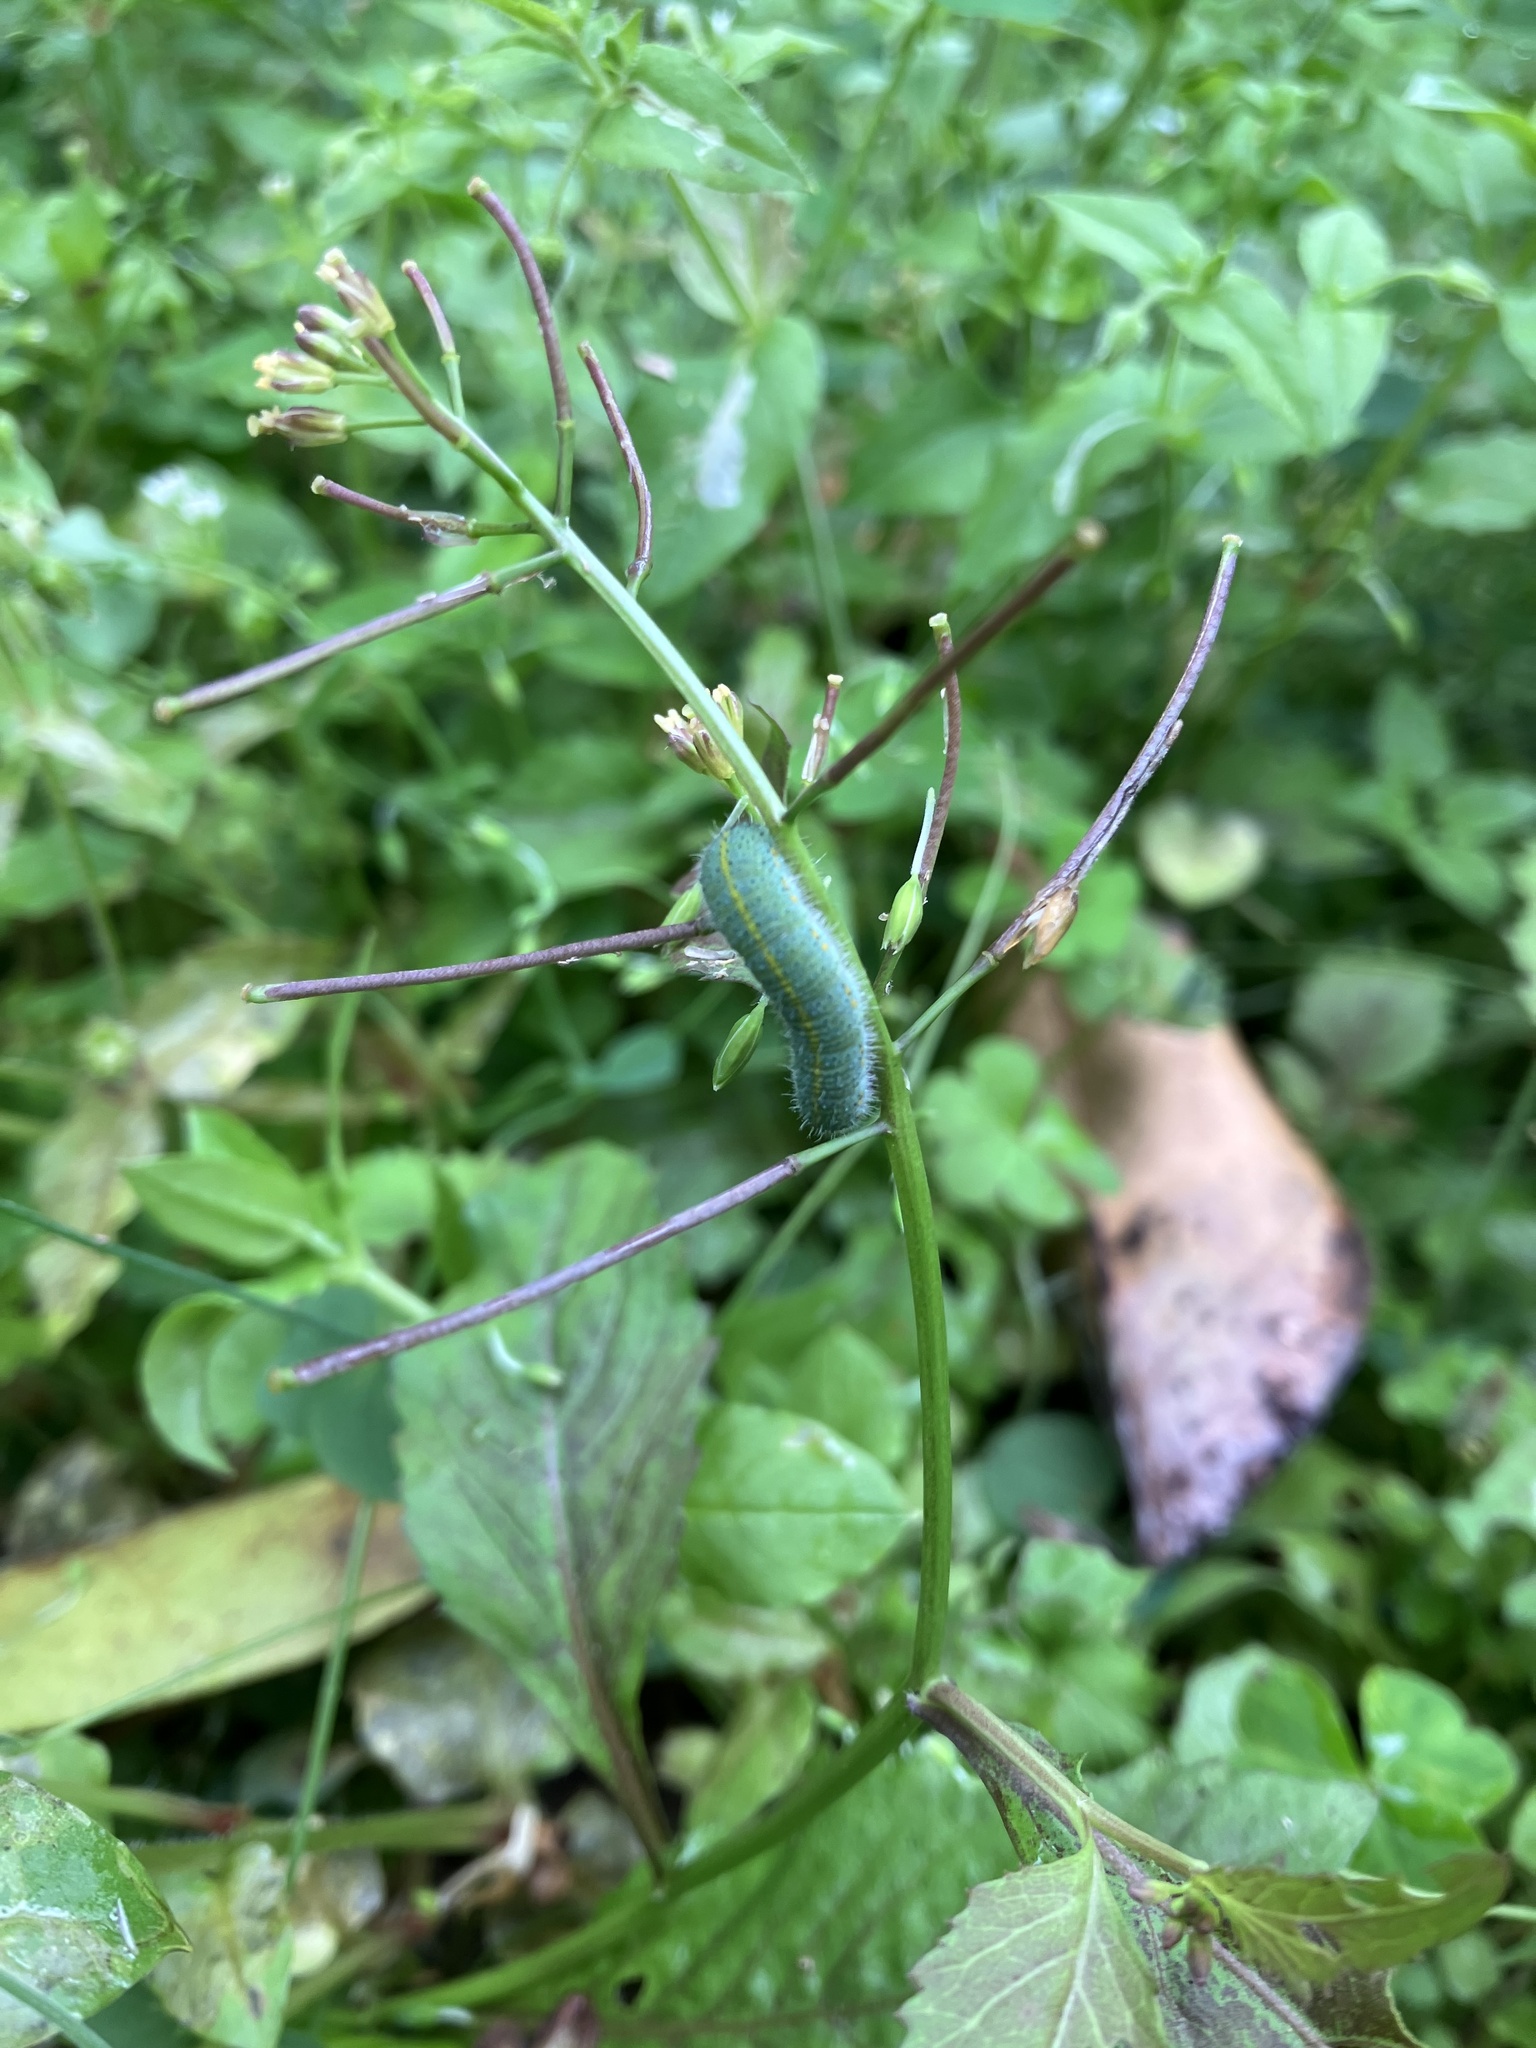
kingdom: Plantae
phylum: Tracheophyta
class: Magnoliopsida
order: Brassicales
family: Brassicaceae
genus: Rorippa
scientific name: Rorippa dubia
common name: Variableleaf yellowcress
